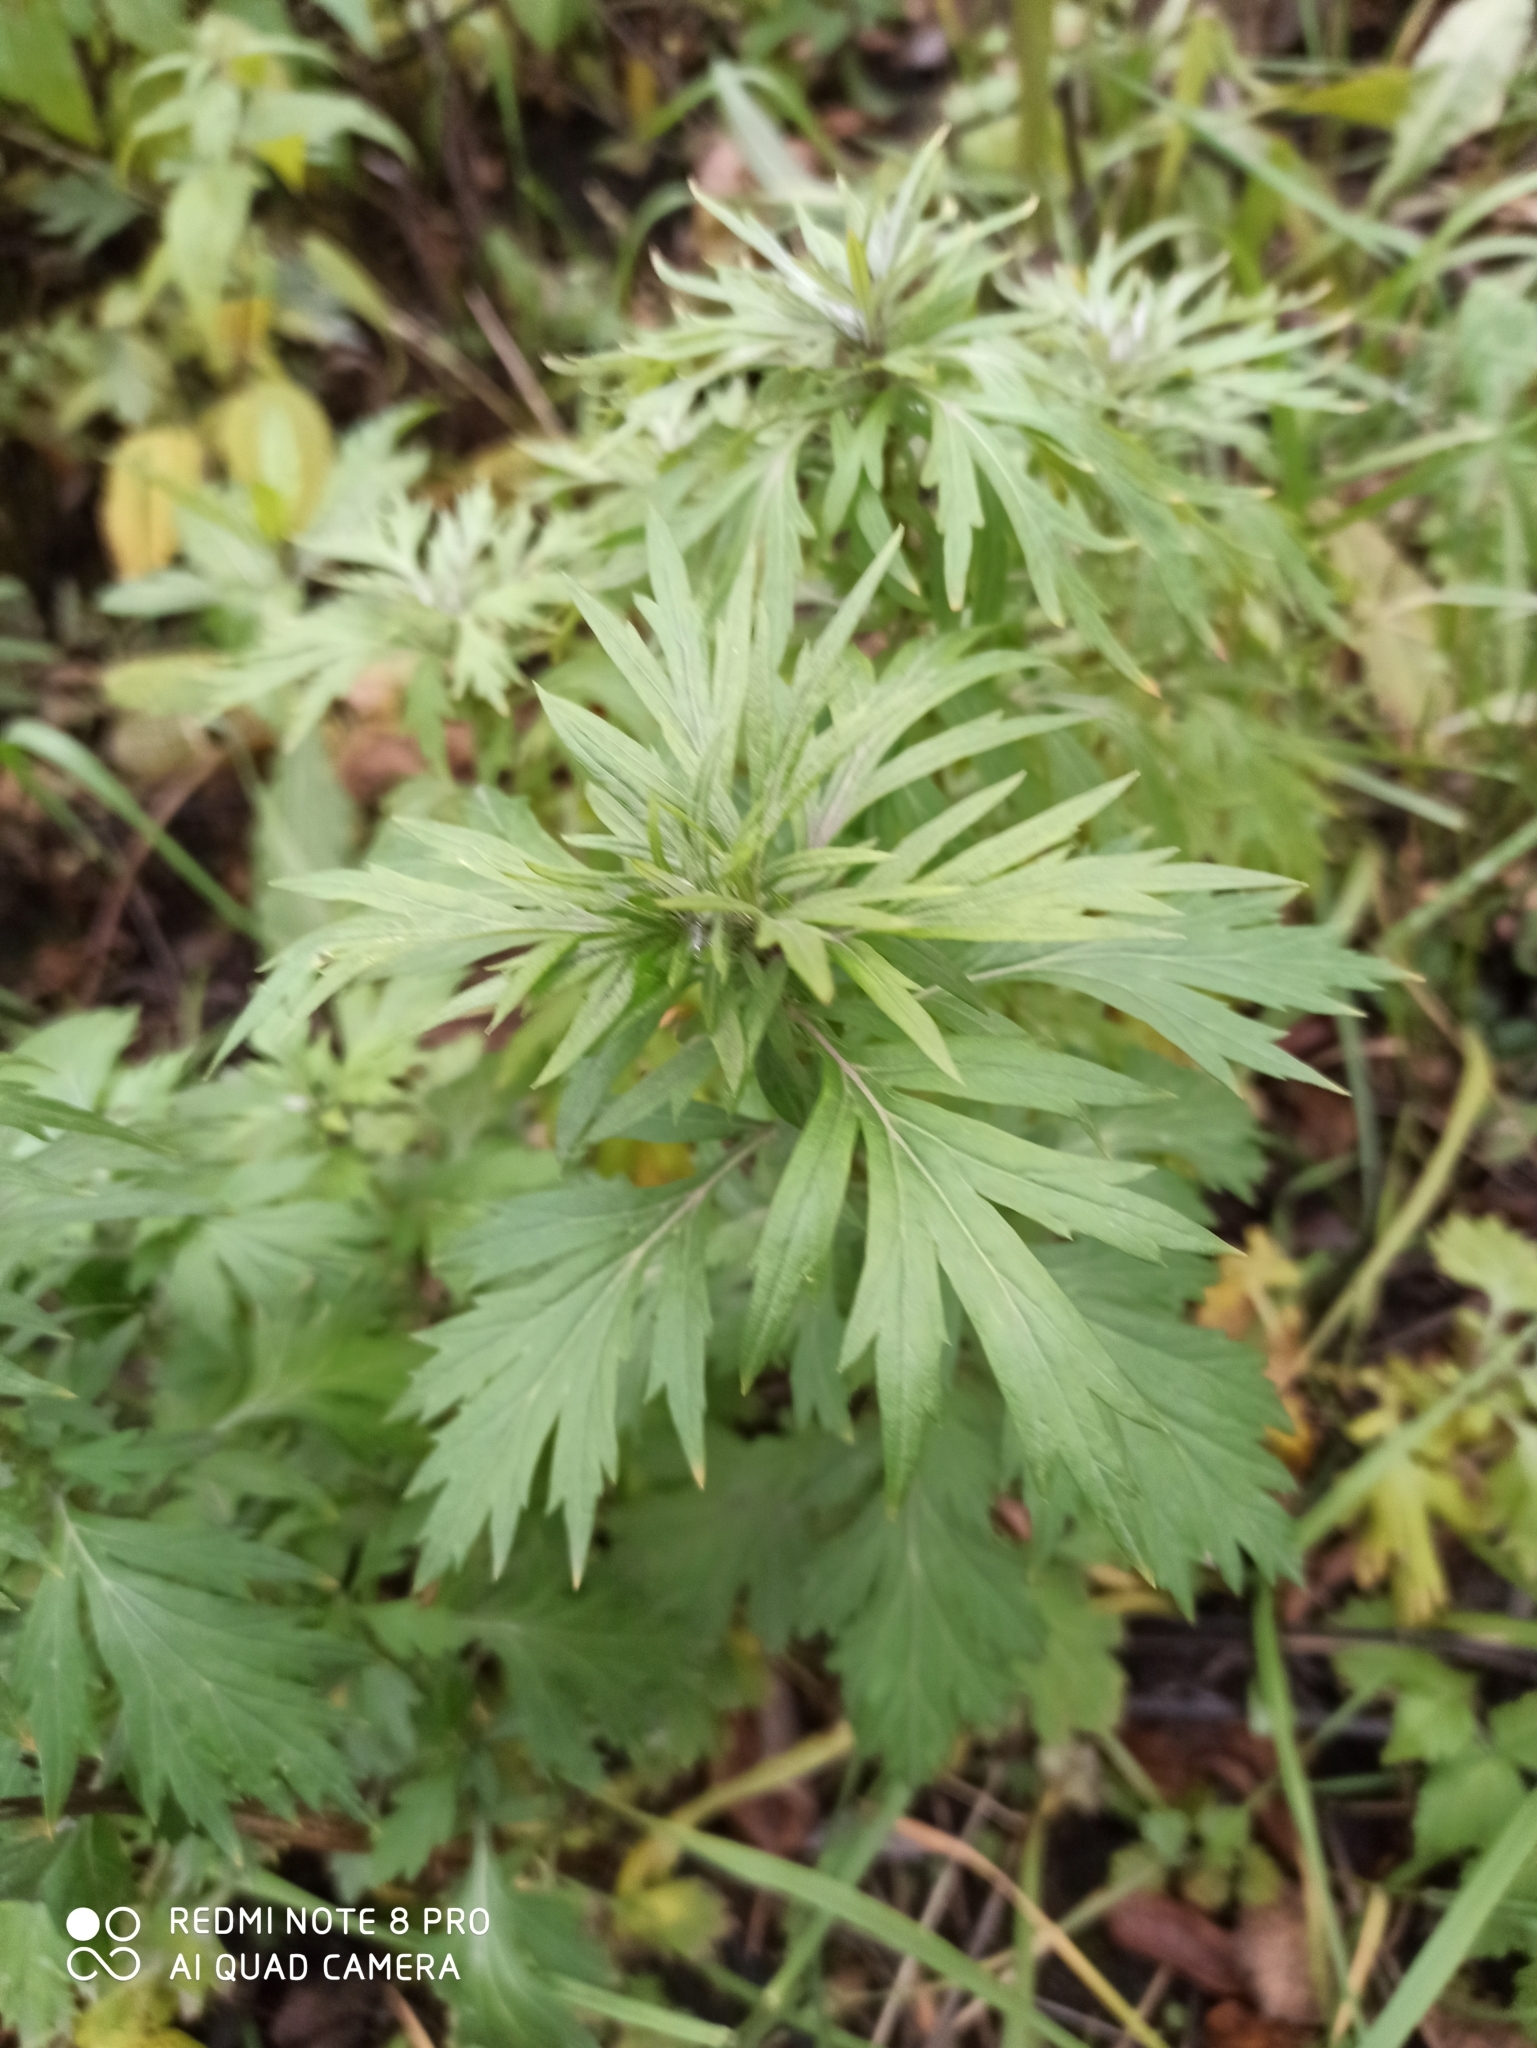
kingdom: Plantae
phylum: Tracheophyta
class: Magnoliopsida
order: Asterales
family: Asteraceae
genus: Artemisia
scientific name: Artemisia vulgaris
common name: Mugwort
